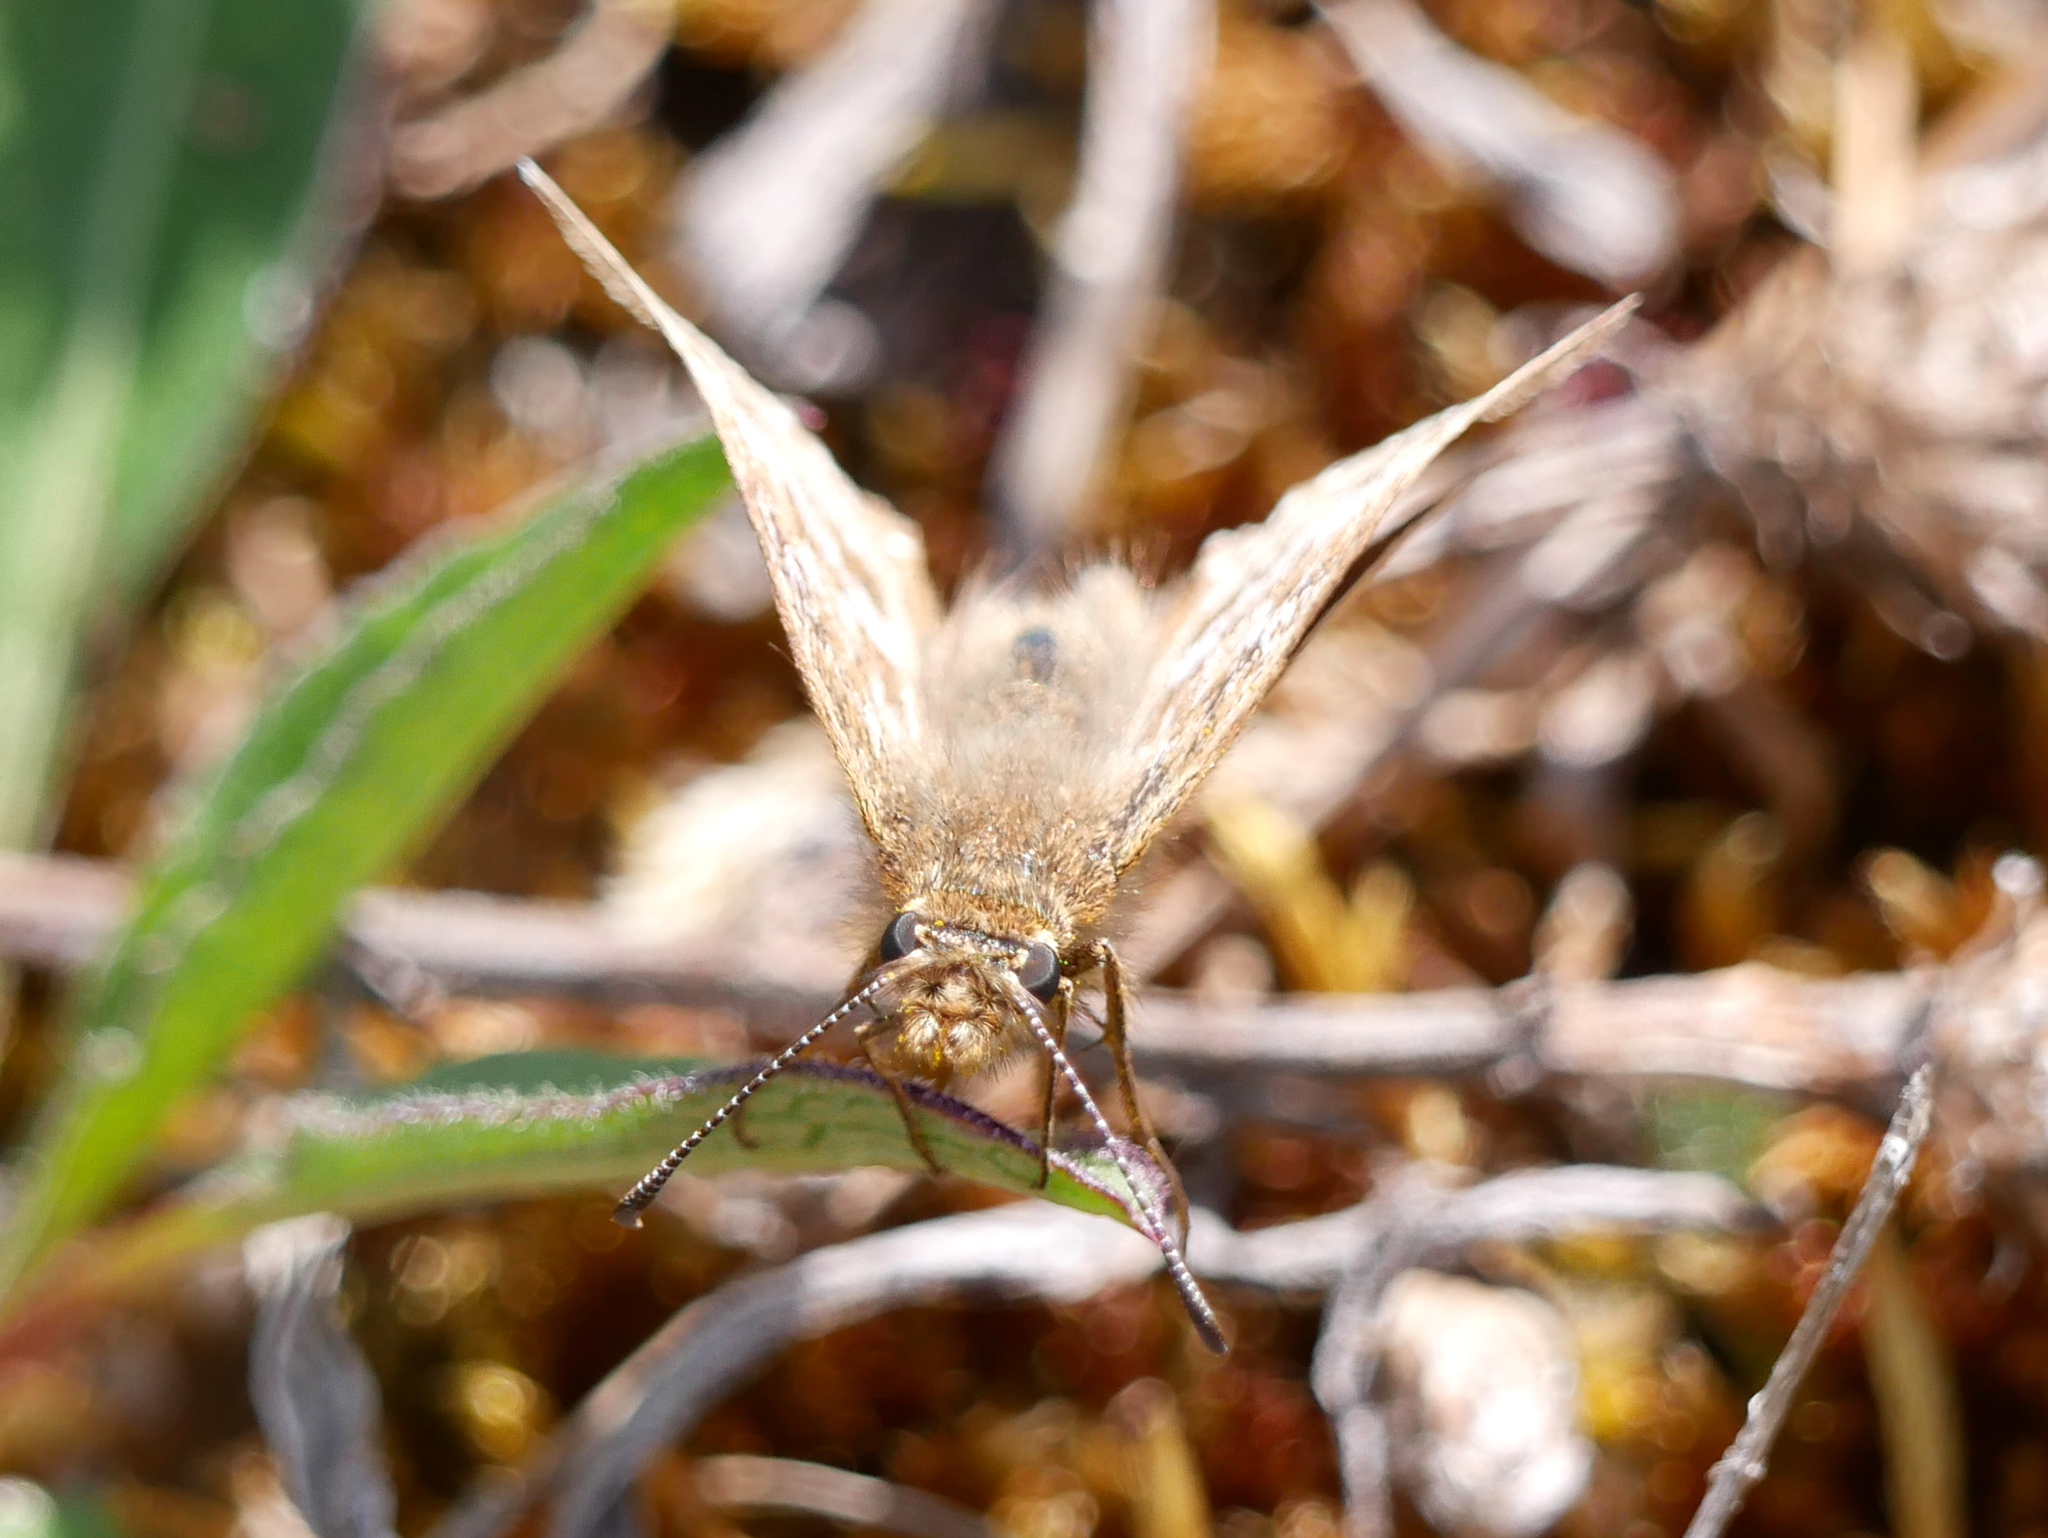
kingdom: Animalia
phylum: Arthropoda
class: Insecta
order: Lepidoptera
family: Hesperiidae
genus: Erynnis
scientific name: Erynnis tages
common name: Dingy skipper
